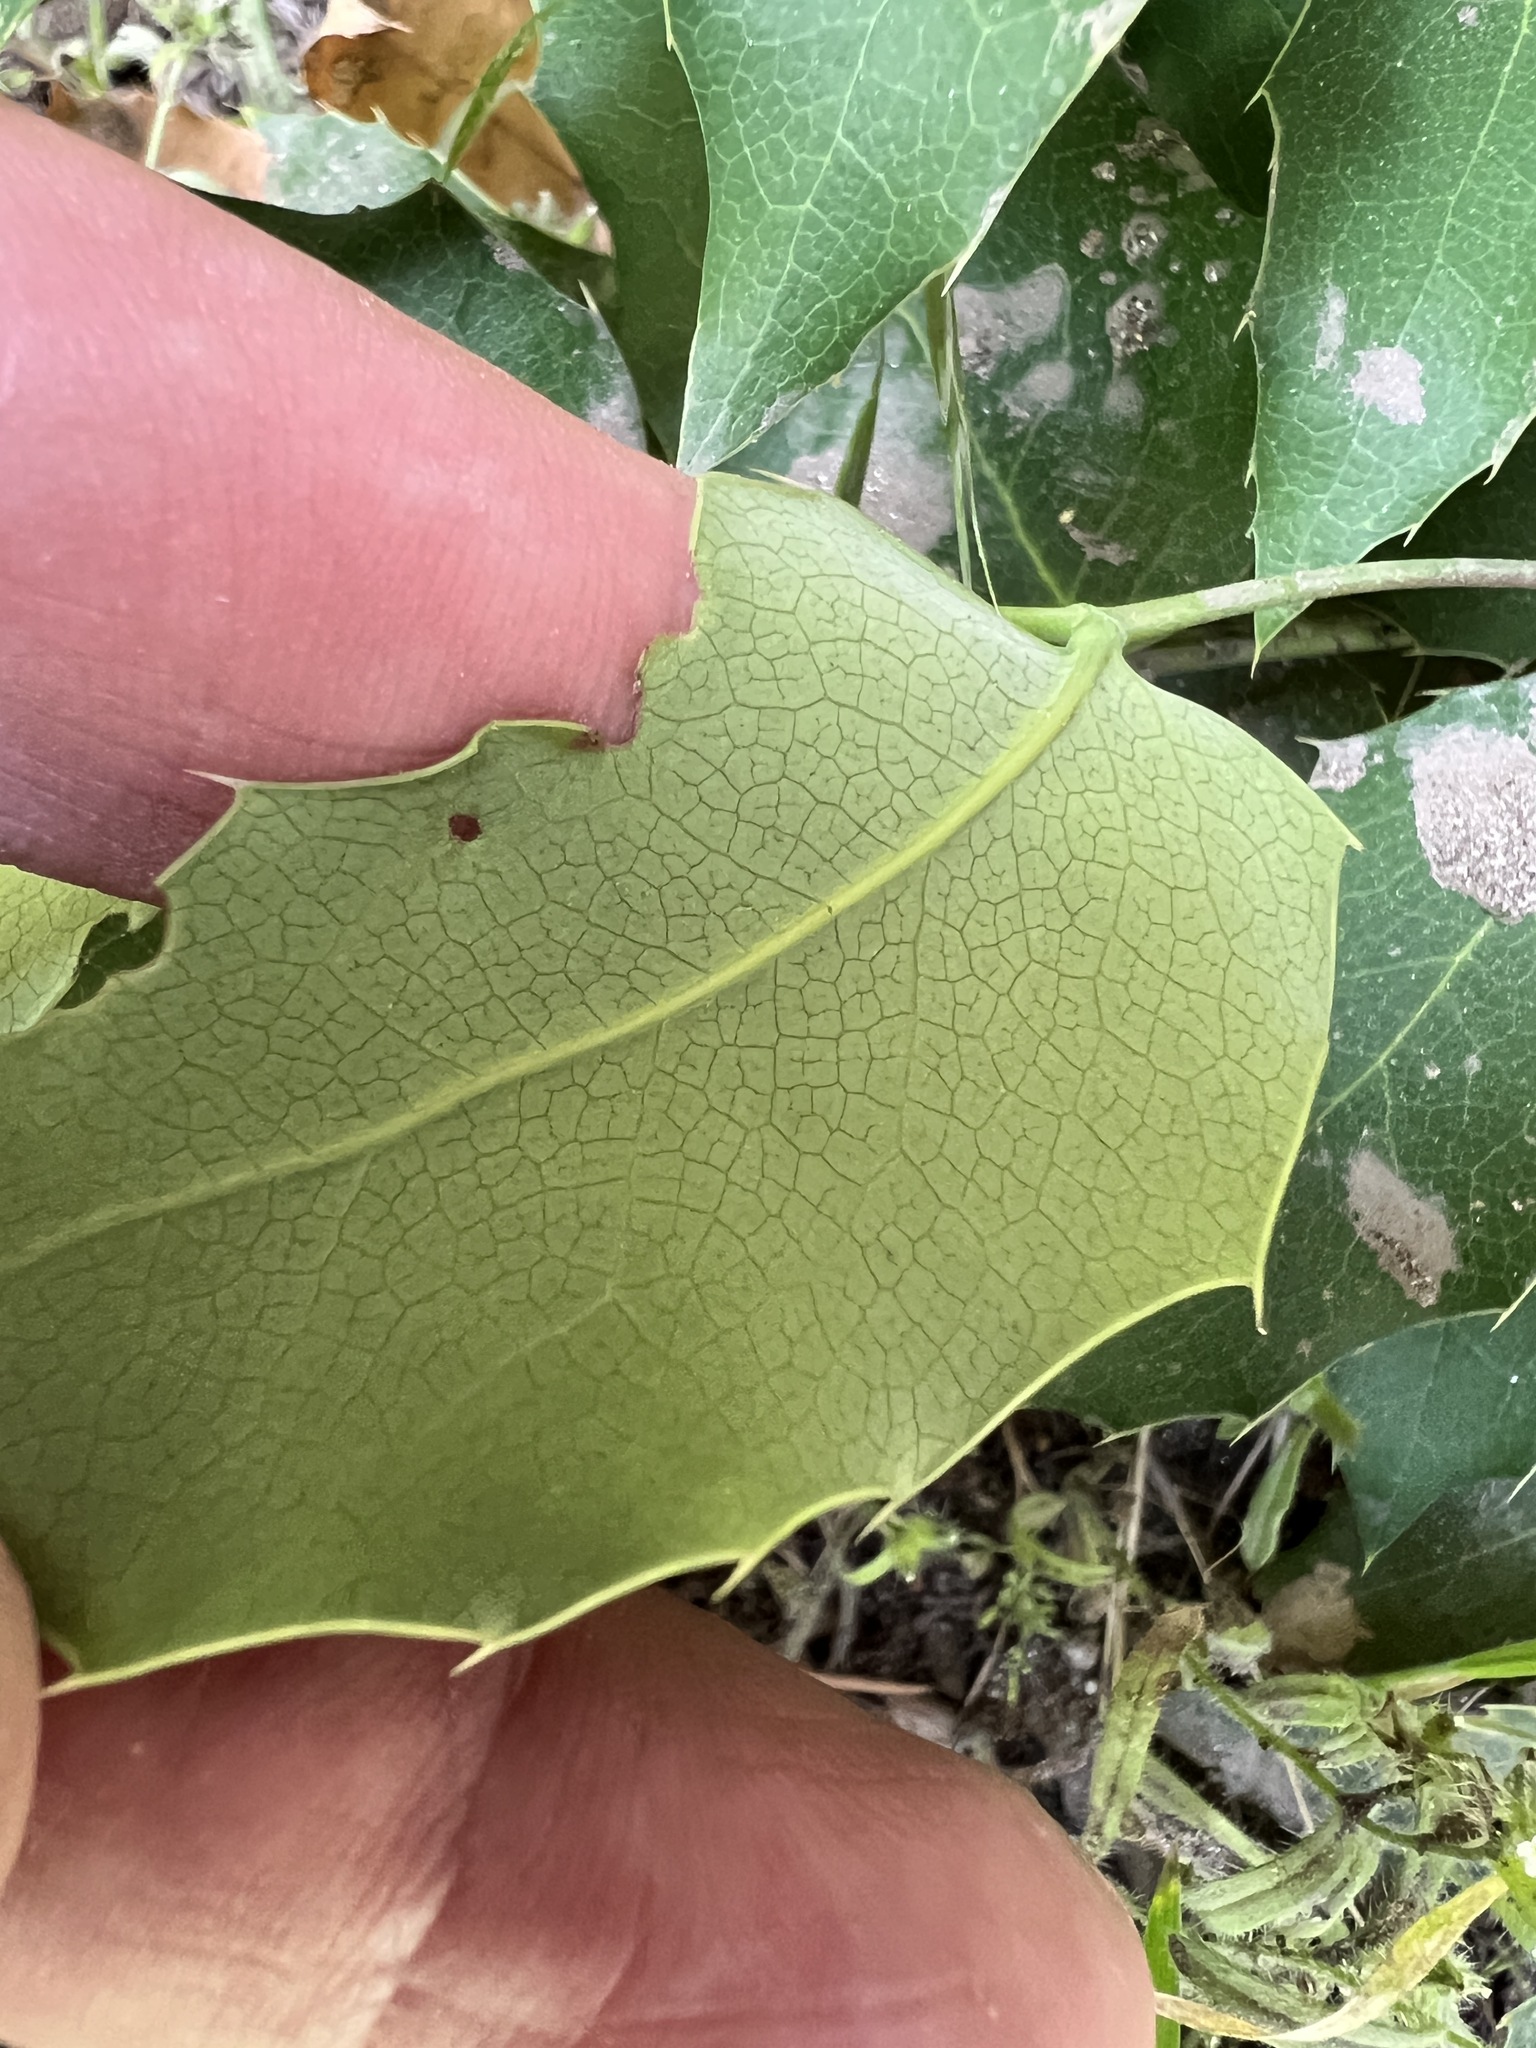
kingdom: Plantae
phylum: Tracheophyta
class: Magnoliopsida
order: Ranunculales
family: Berberidaceae
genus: Mahonia
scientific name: Mahonia repens
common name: Creeping oregon-grape
